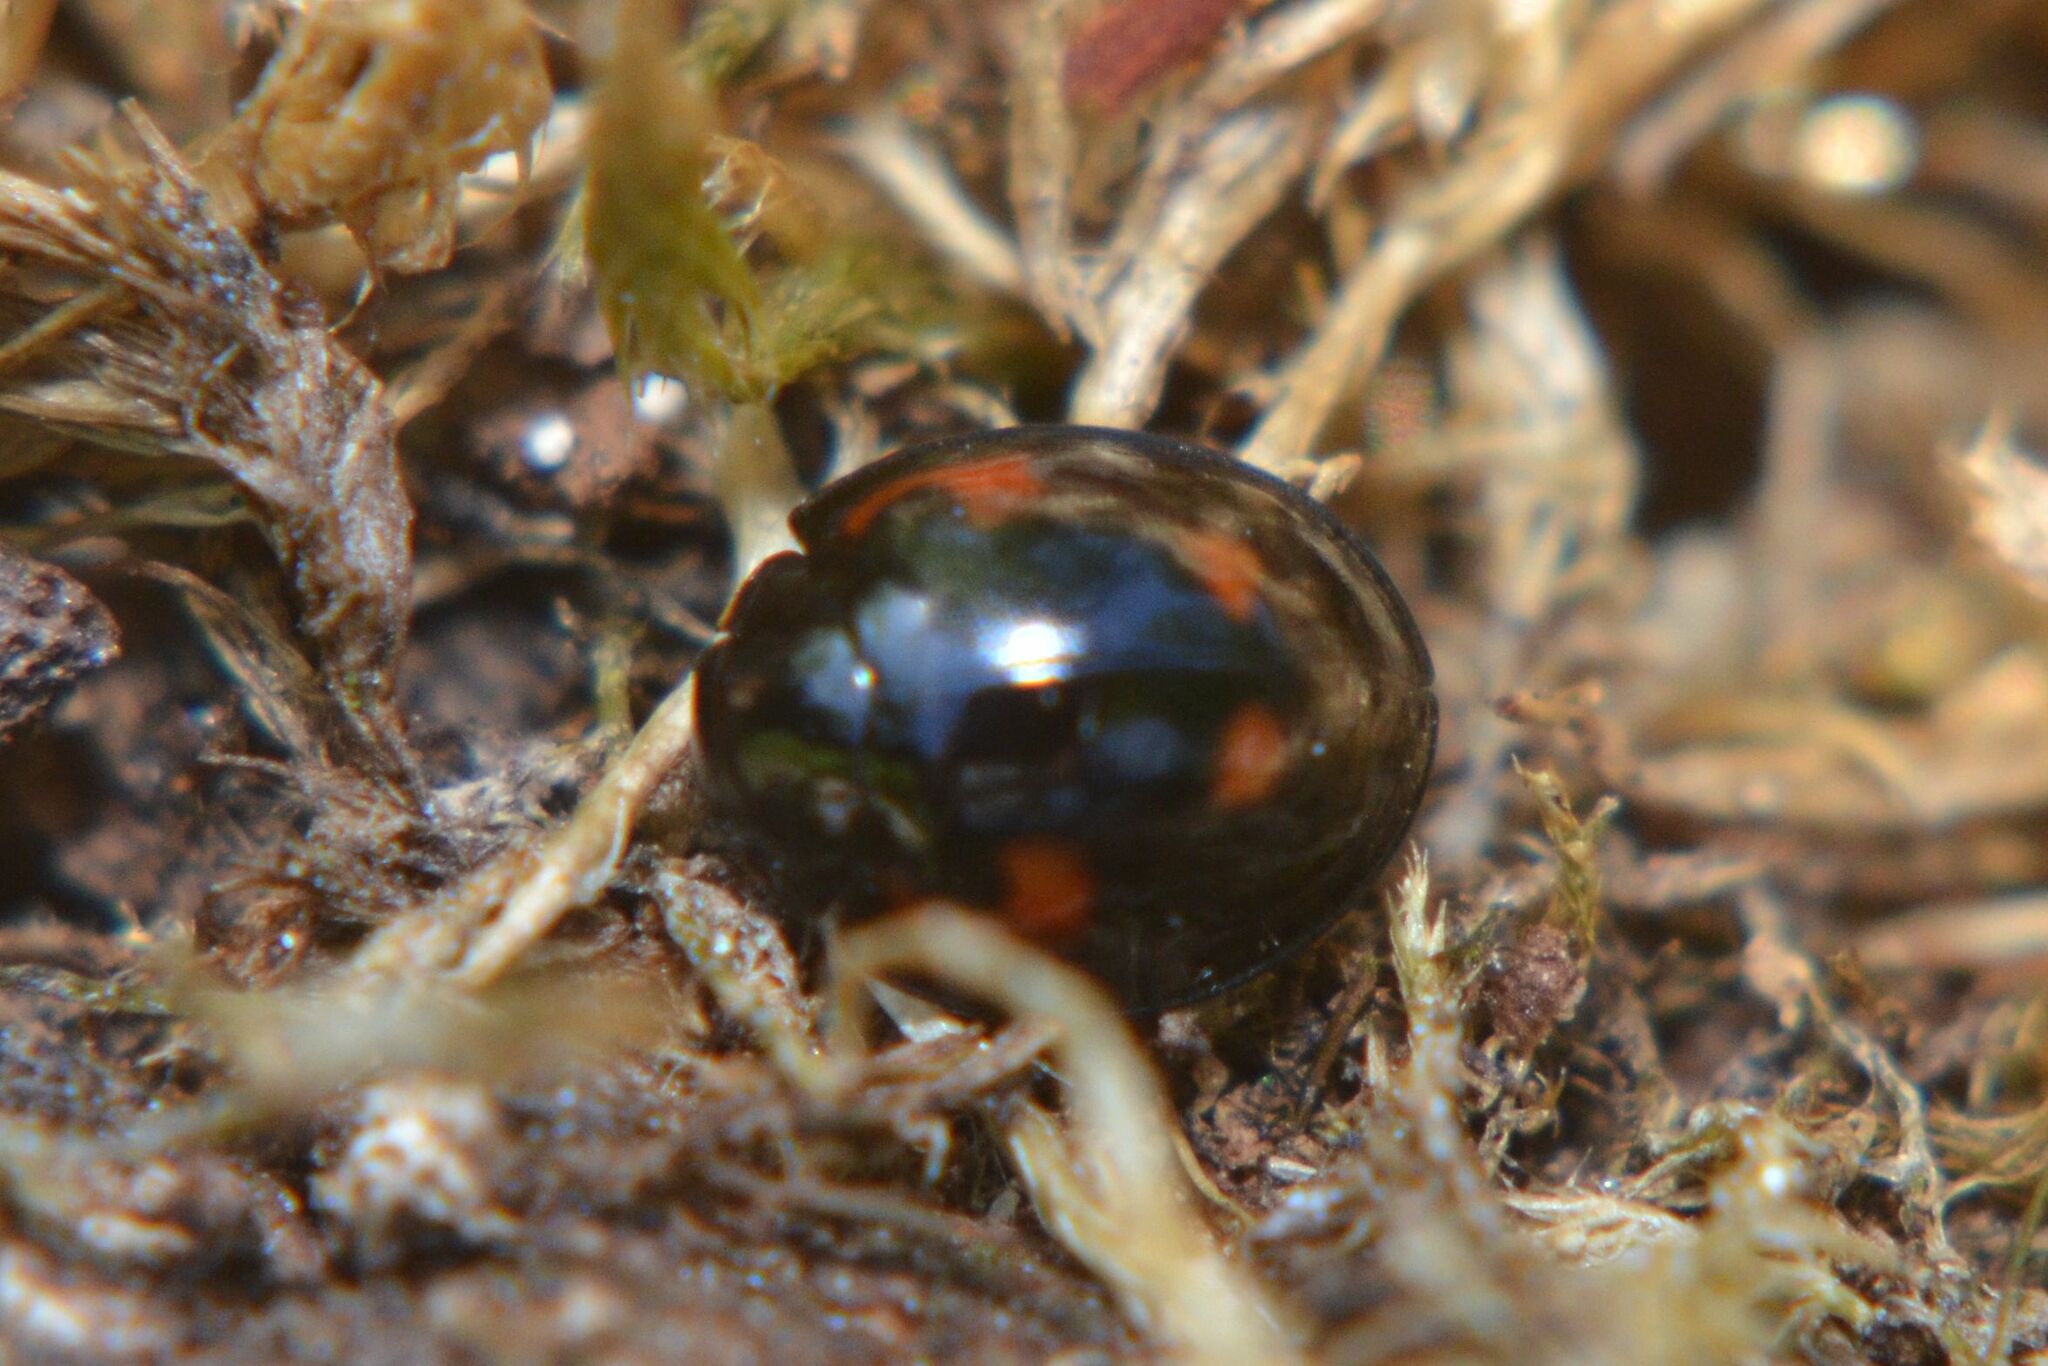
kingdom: Animalia
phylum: Arthropoda
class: Insecta
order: Coleoptera
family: Coccinellidae
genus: Brumus
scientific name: Brumus quadripustulatus
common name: Ladybird beetle
